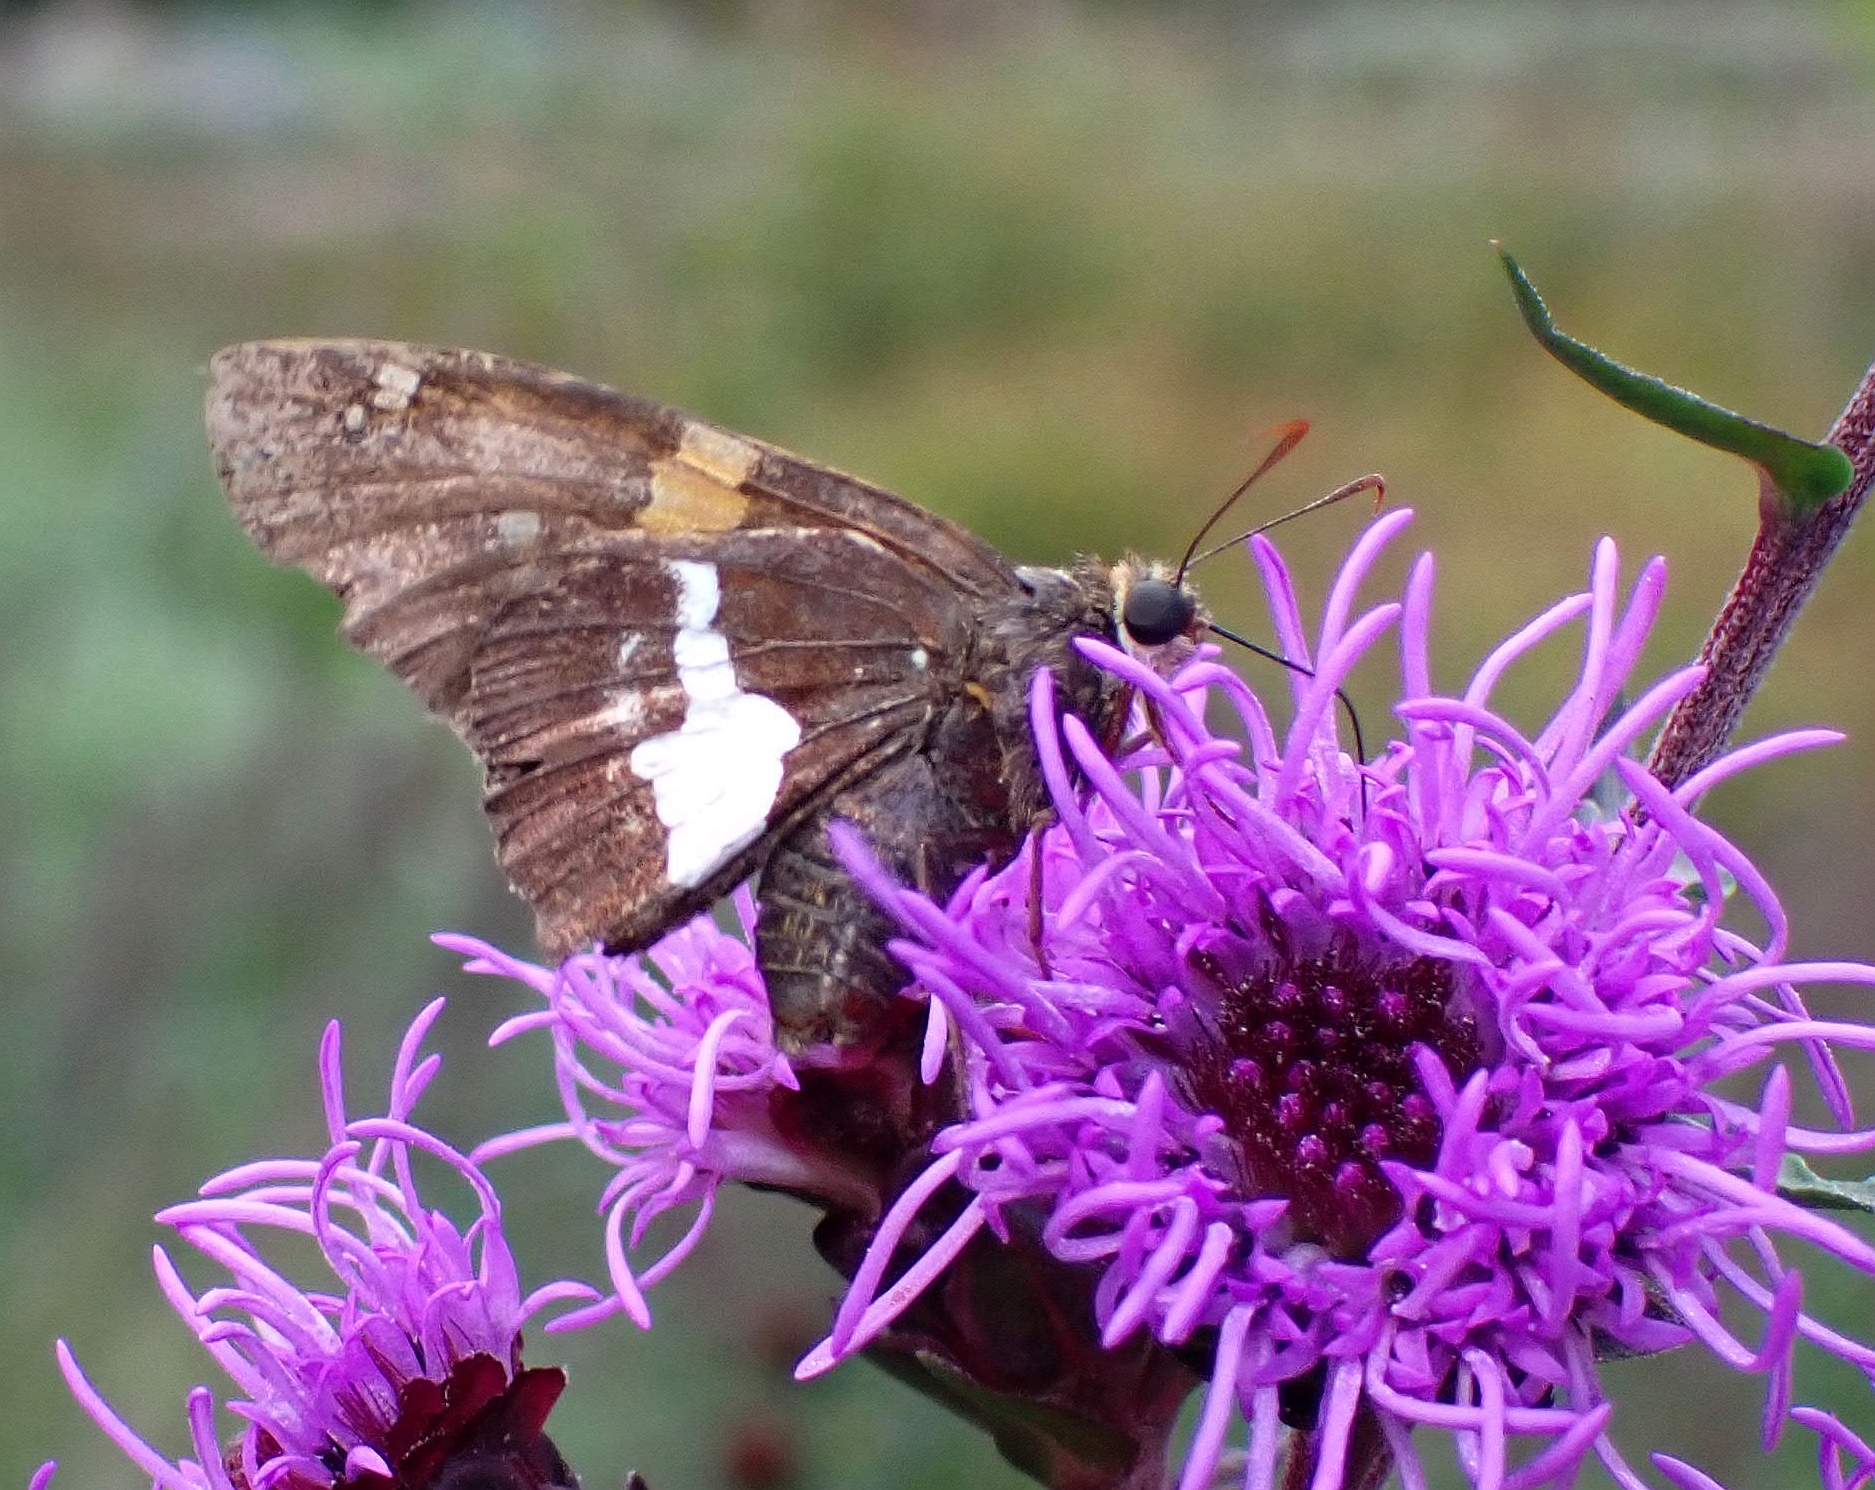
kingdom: Animalia
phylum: Arthropoda
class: Insecta
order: Lepidoptera
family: Hesperiidae
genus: Epargyreus
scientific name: Epargyreus clarus
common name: Silver-spotted skipper
